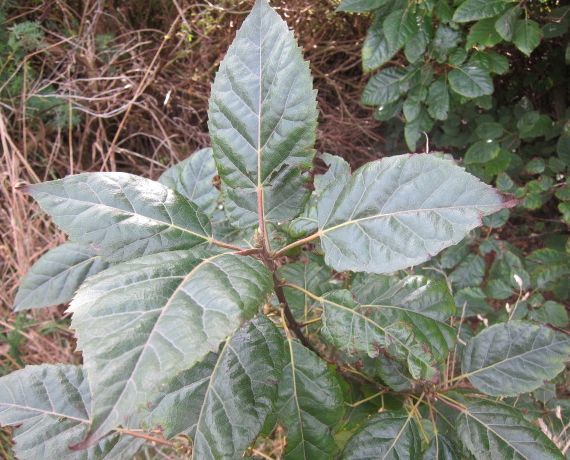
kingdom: Plantae
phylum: Tracheophyta
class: Magnoliopsida
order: Oxalidales
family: Elaeocarpaceae
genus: Aristotelia
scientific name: Aristotelia serrata
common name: New zealand wineberry
